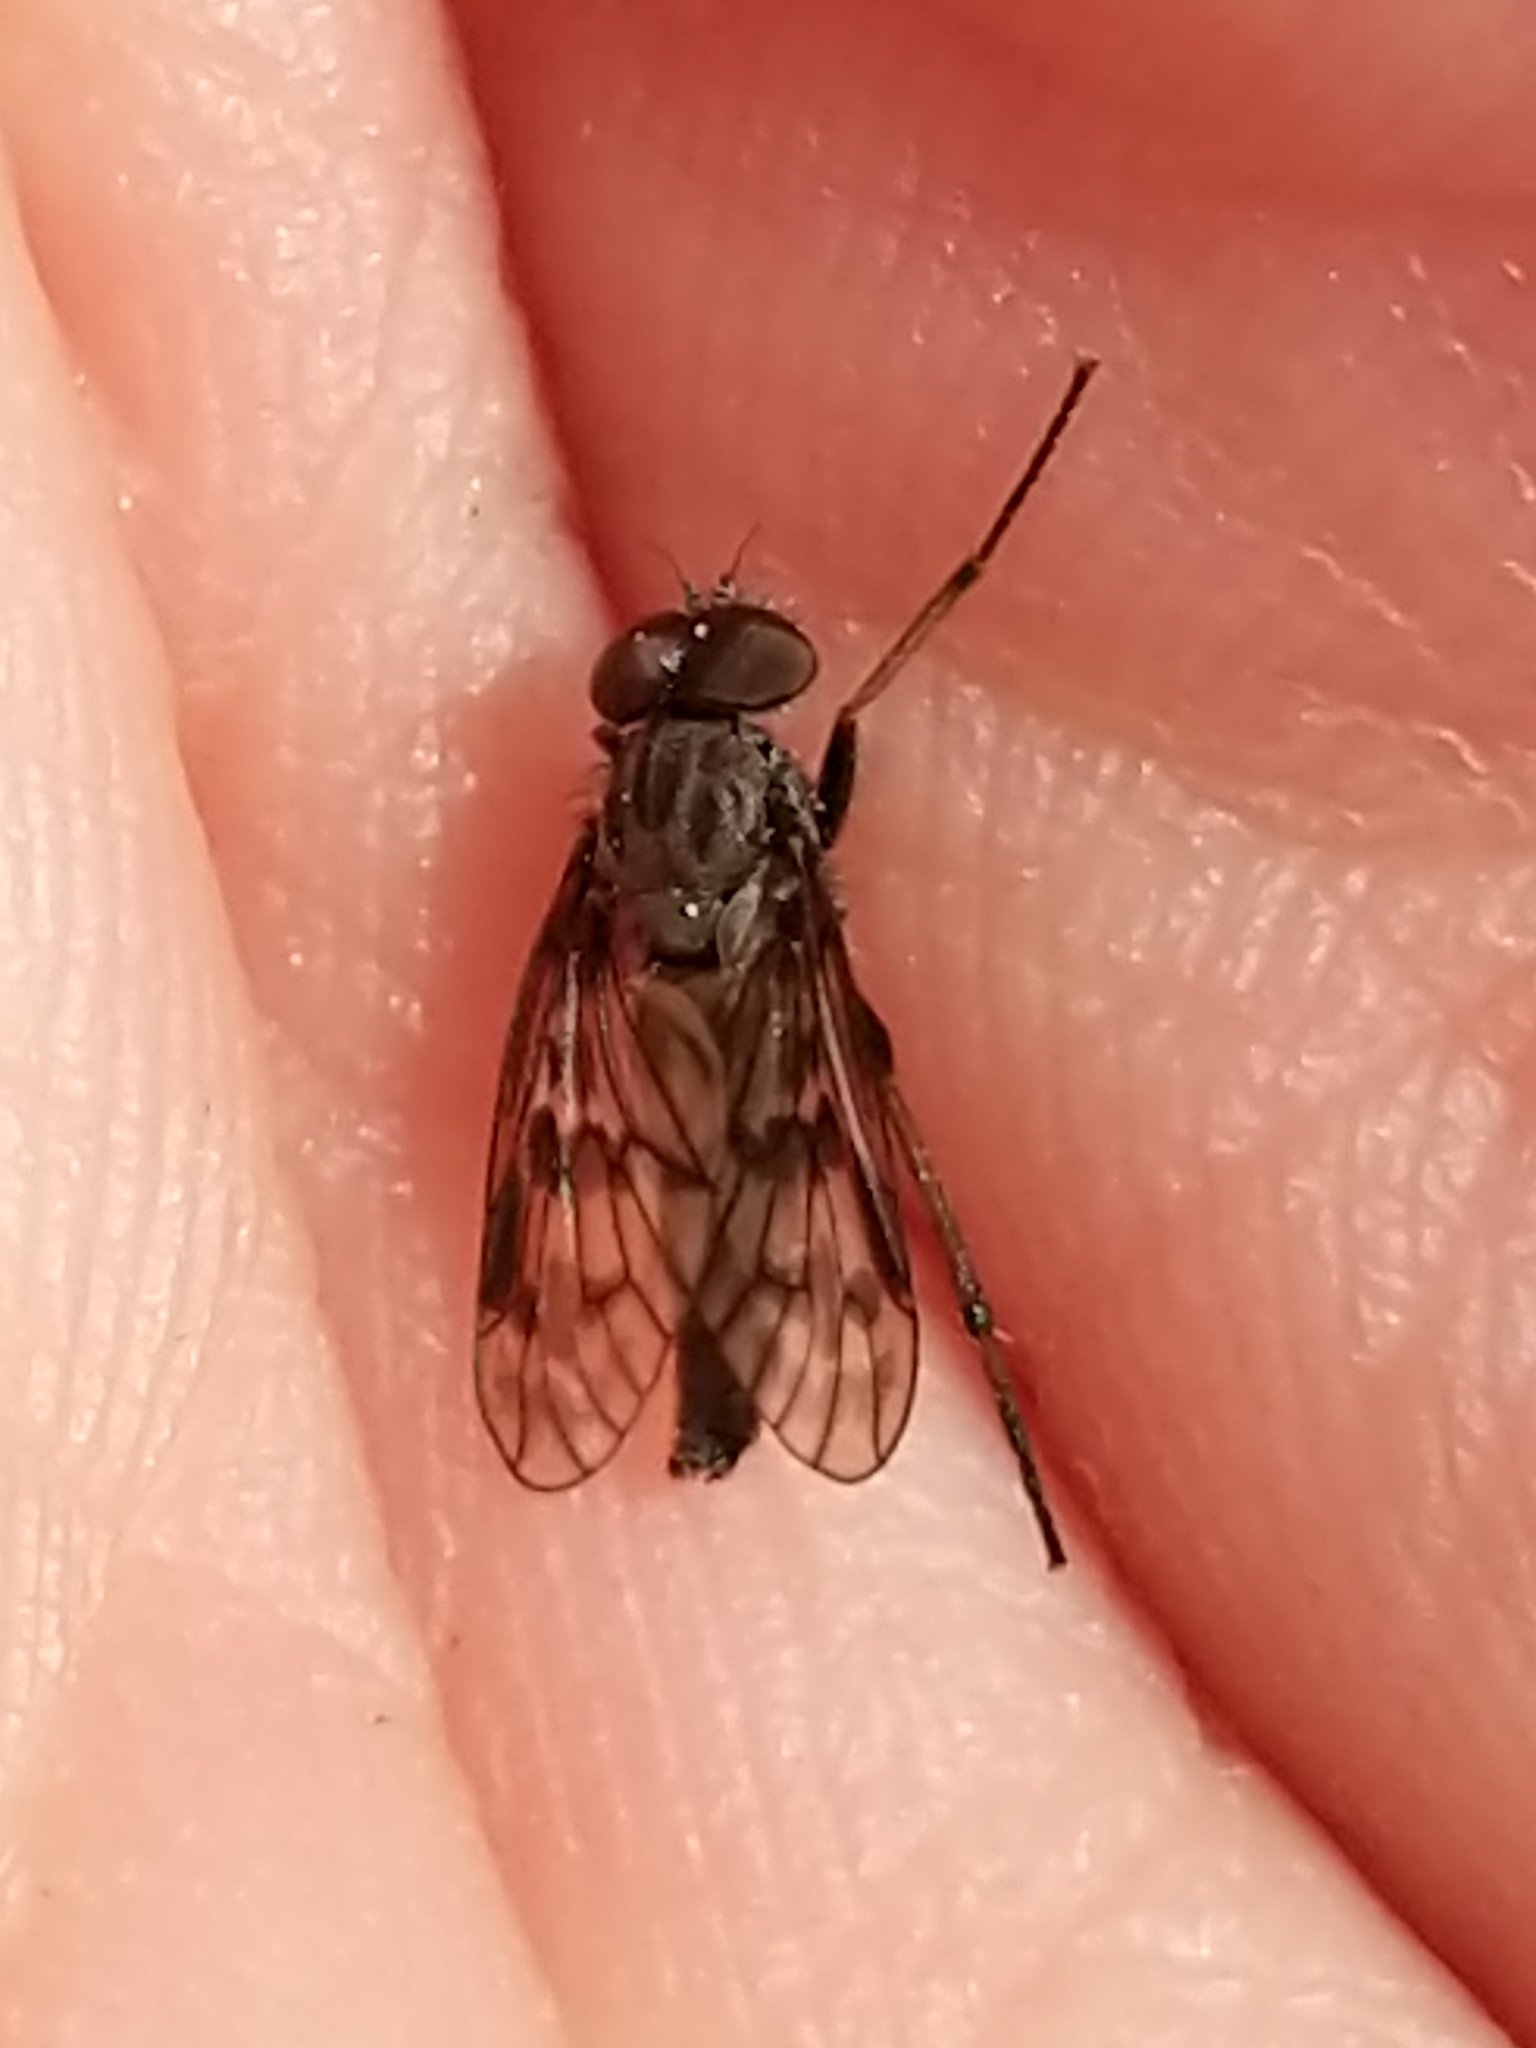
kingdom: Animalia
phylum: Arthropoda
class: Insecta
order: Diptera
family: Rhagionidae
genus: Rhagio
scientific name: Rhagio plumbeus
